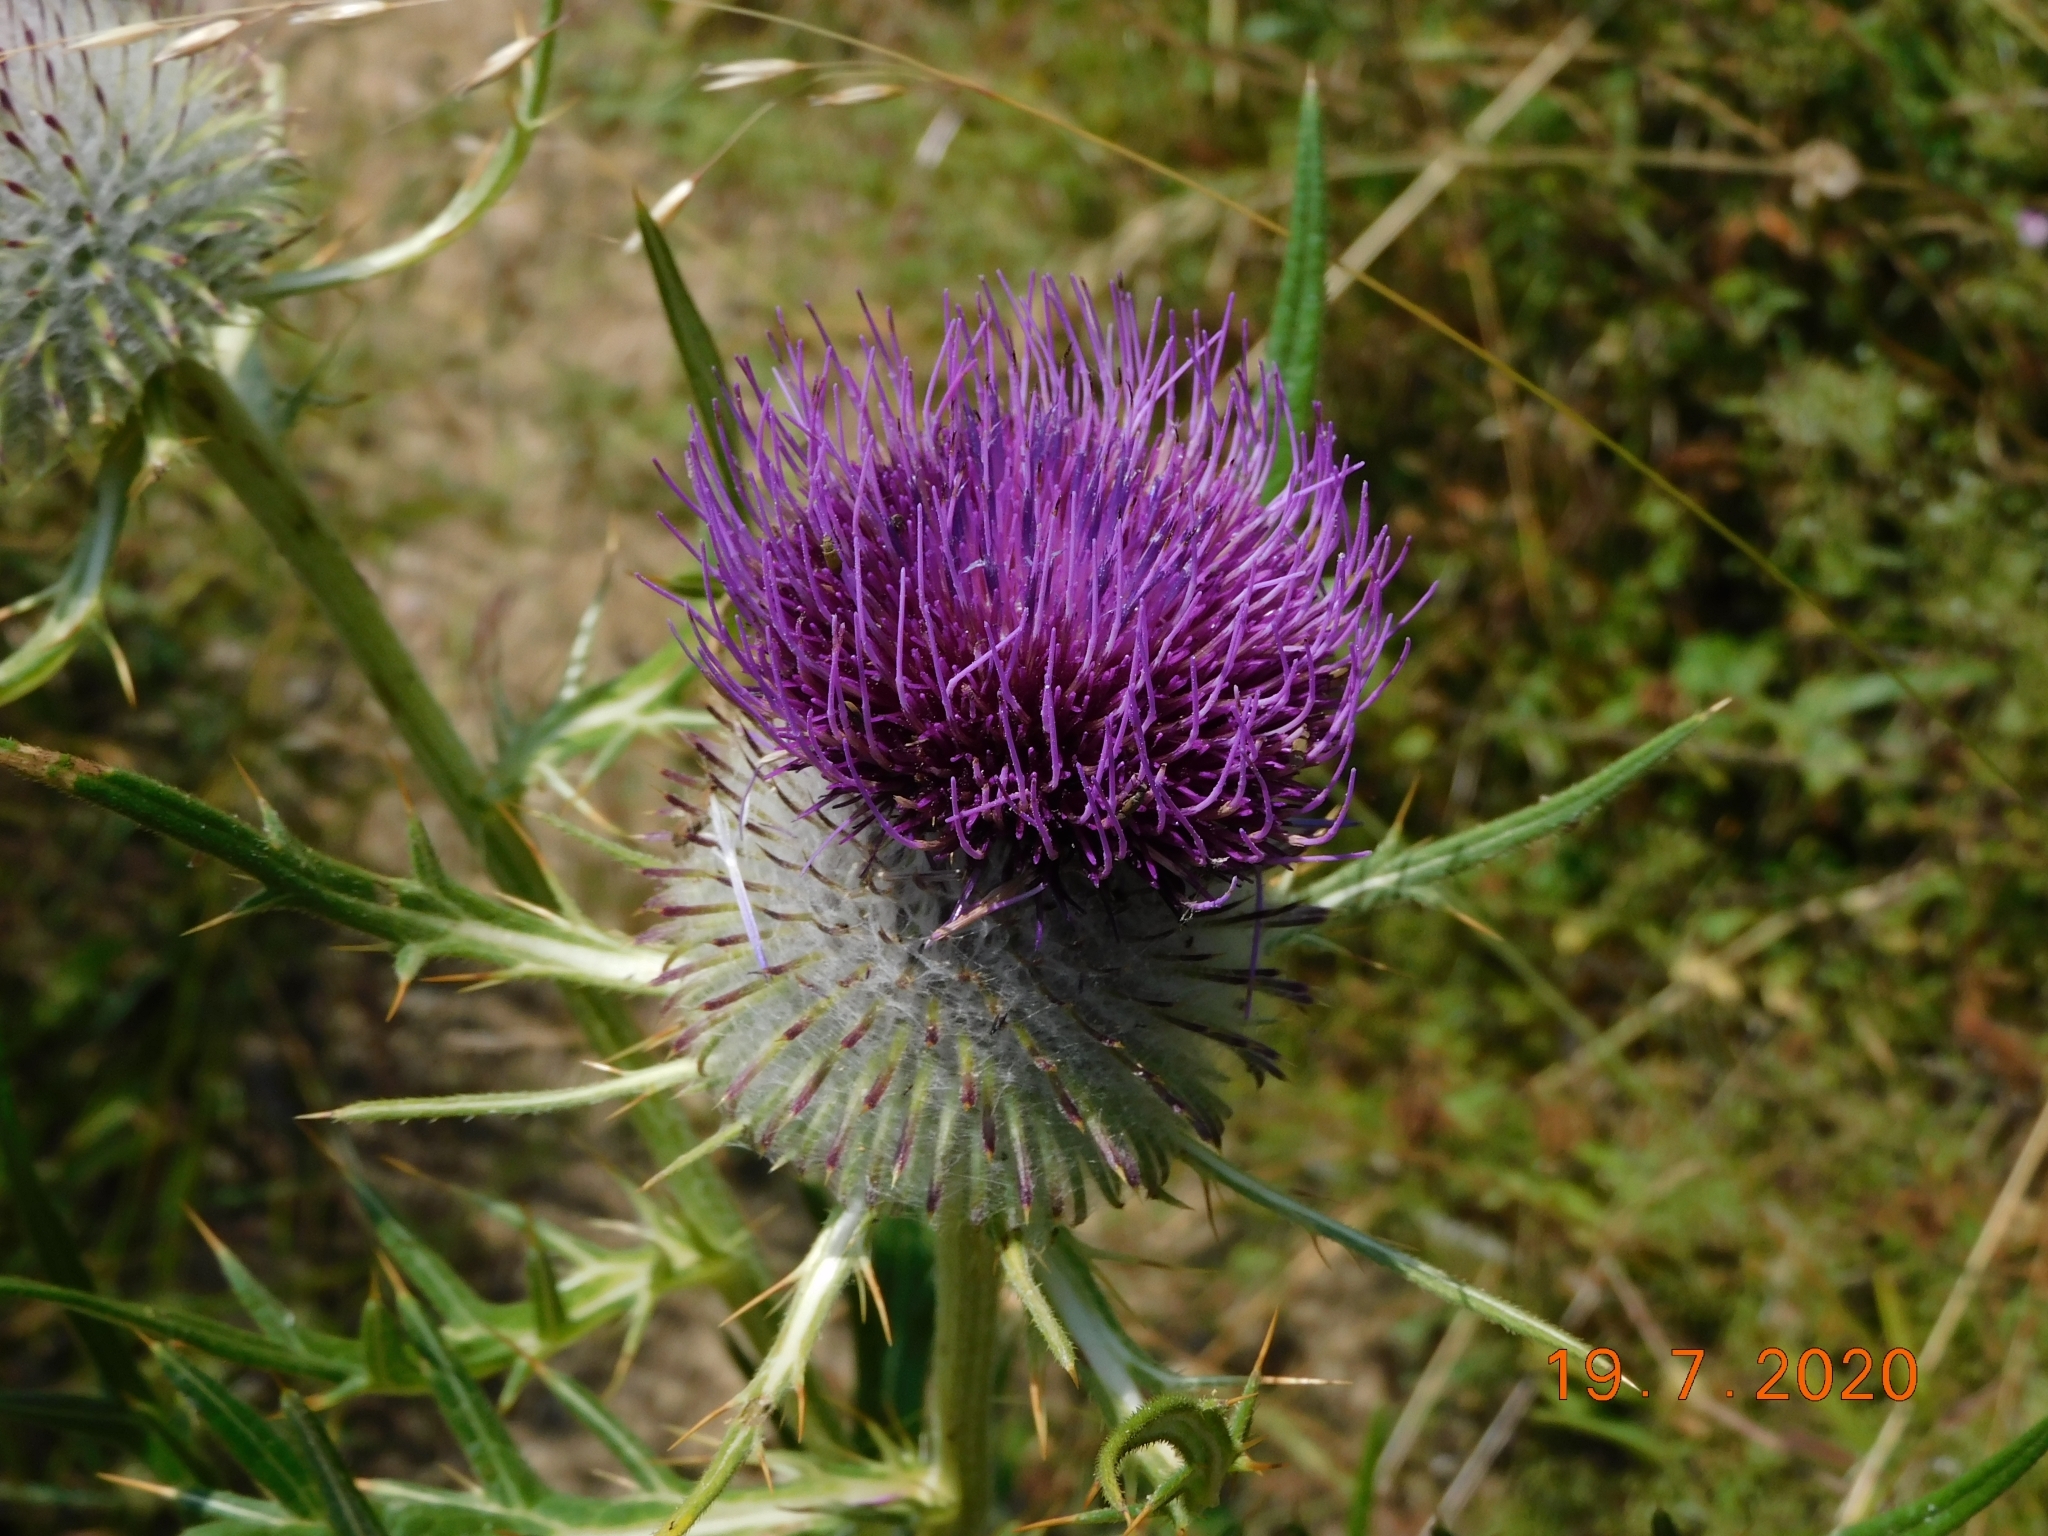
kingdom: Plantae
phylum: Tracheophyta
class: Magnoliopsida
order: Asterales
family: Asteraceae
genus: Lophiolepis
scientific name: Lophiolepis eriophora
